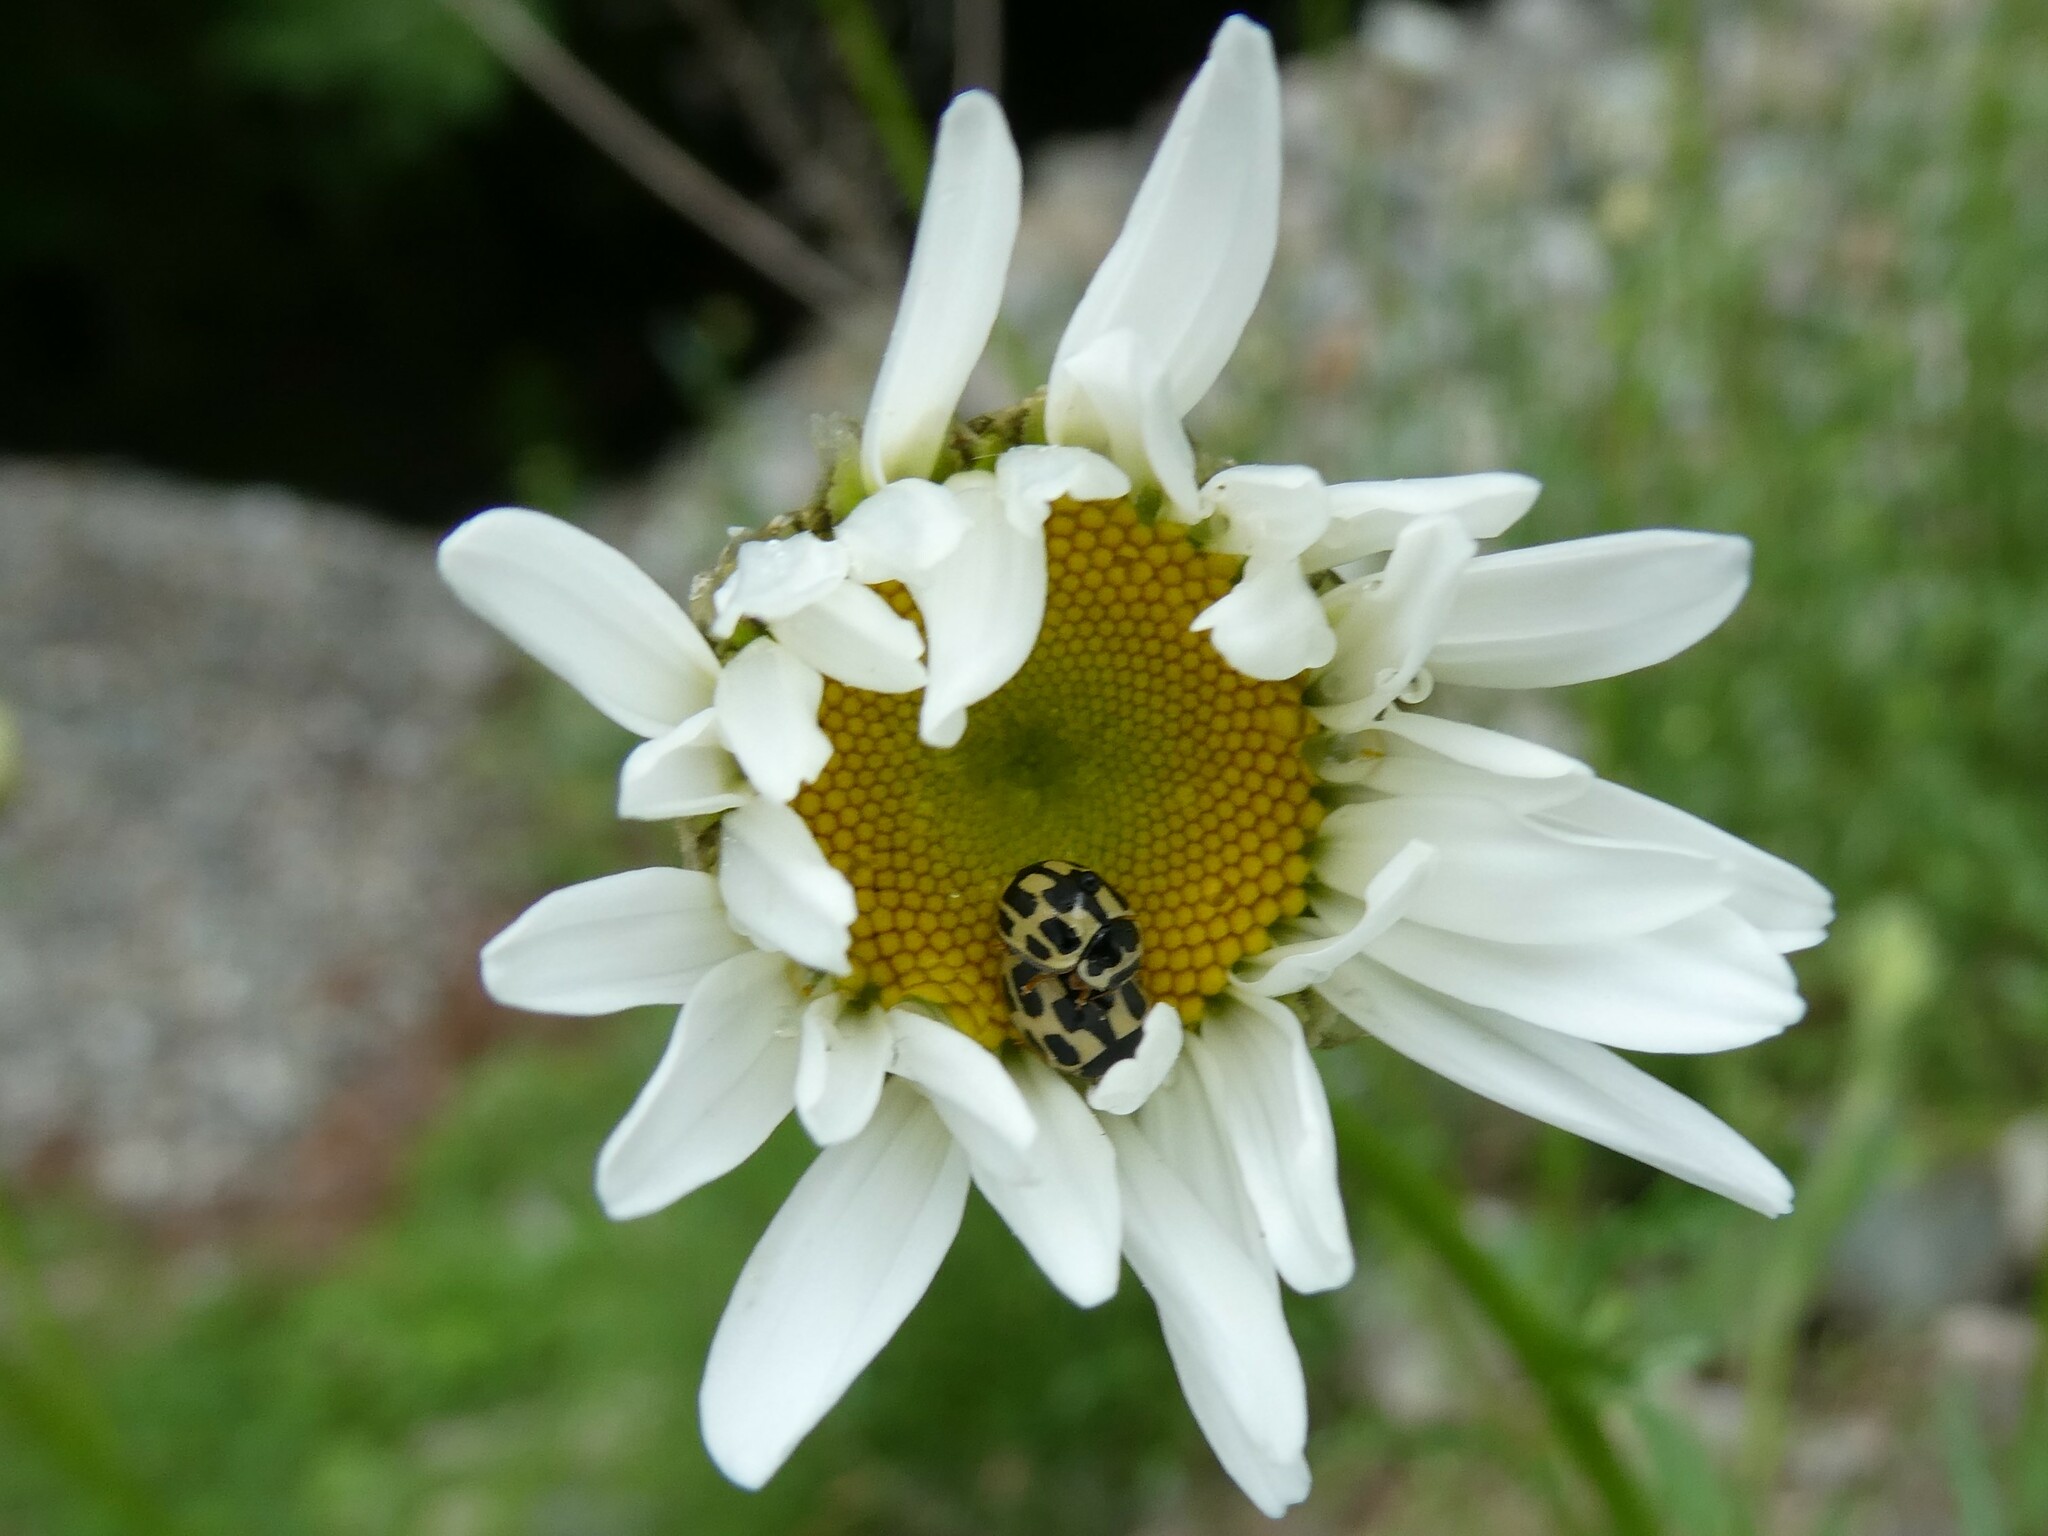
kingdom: Plantae
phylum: Tracheophyta
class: Magnoliopsida
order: Asterales
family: Asteraceae
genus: Leucanthemum
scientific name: Leucanthemum vulgare
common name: Oxeye daisy
